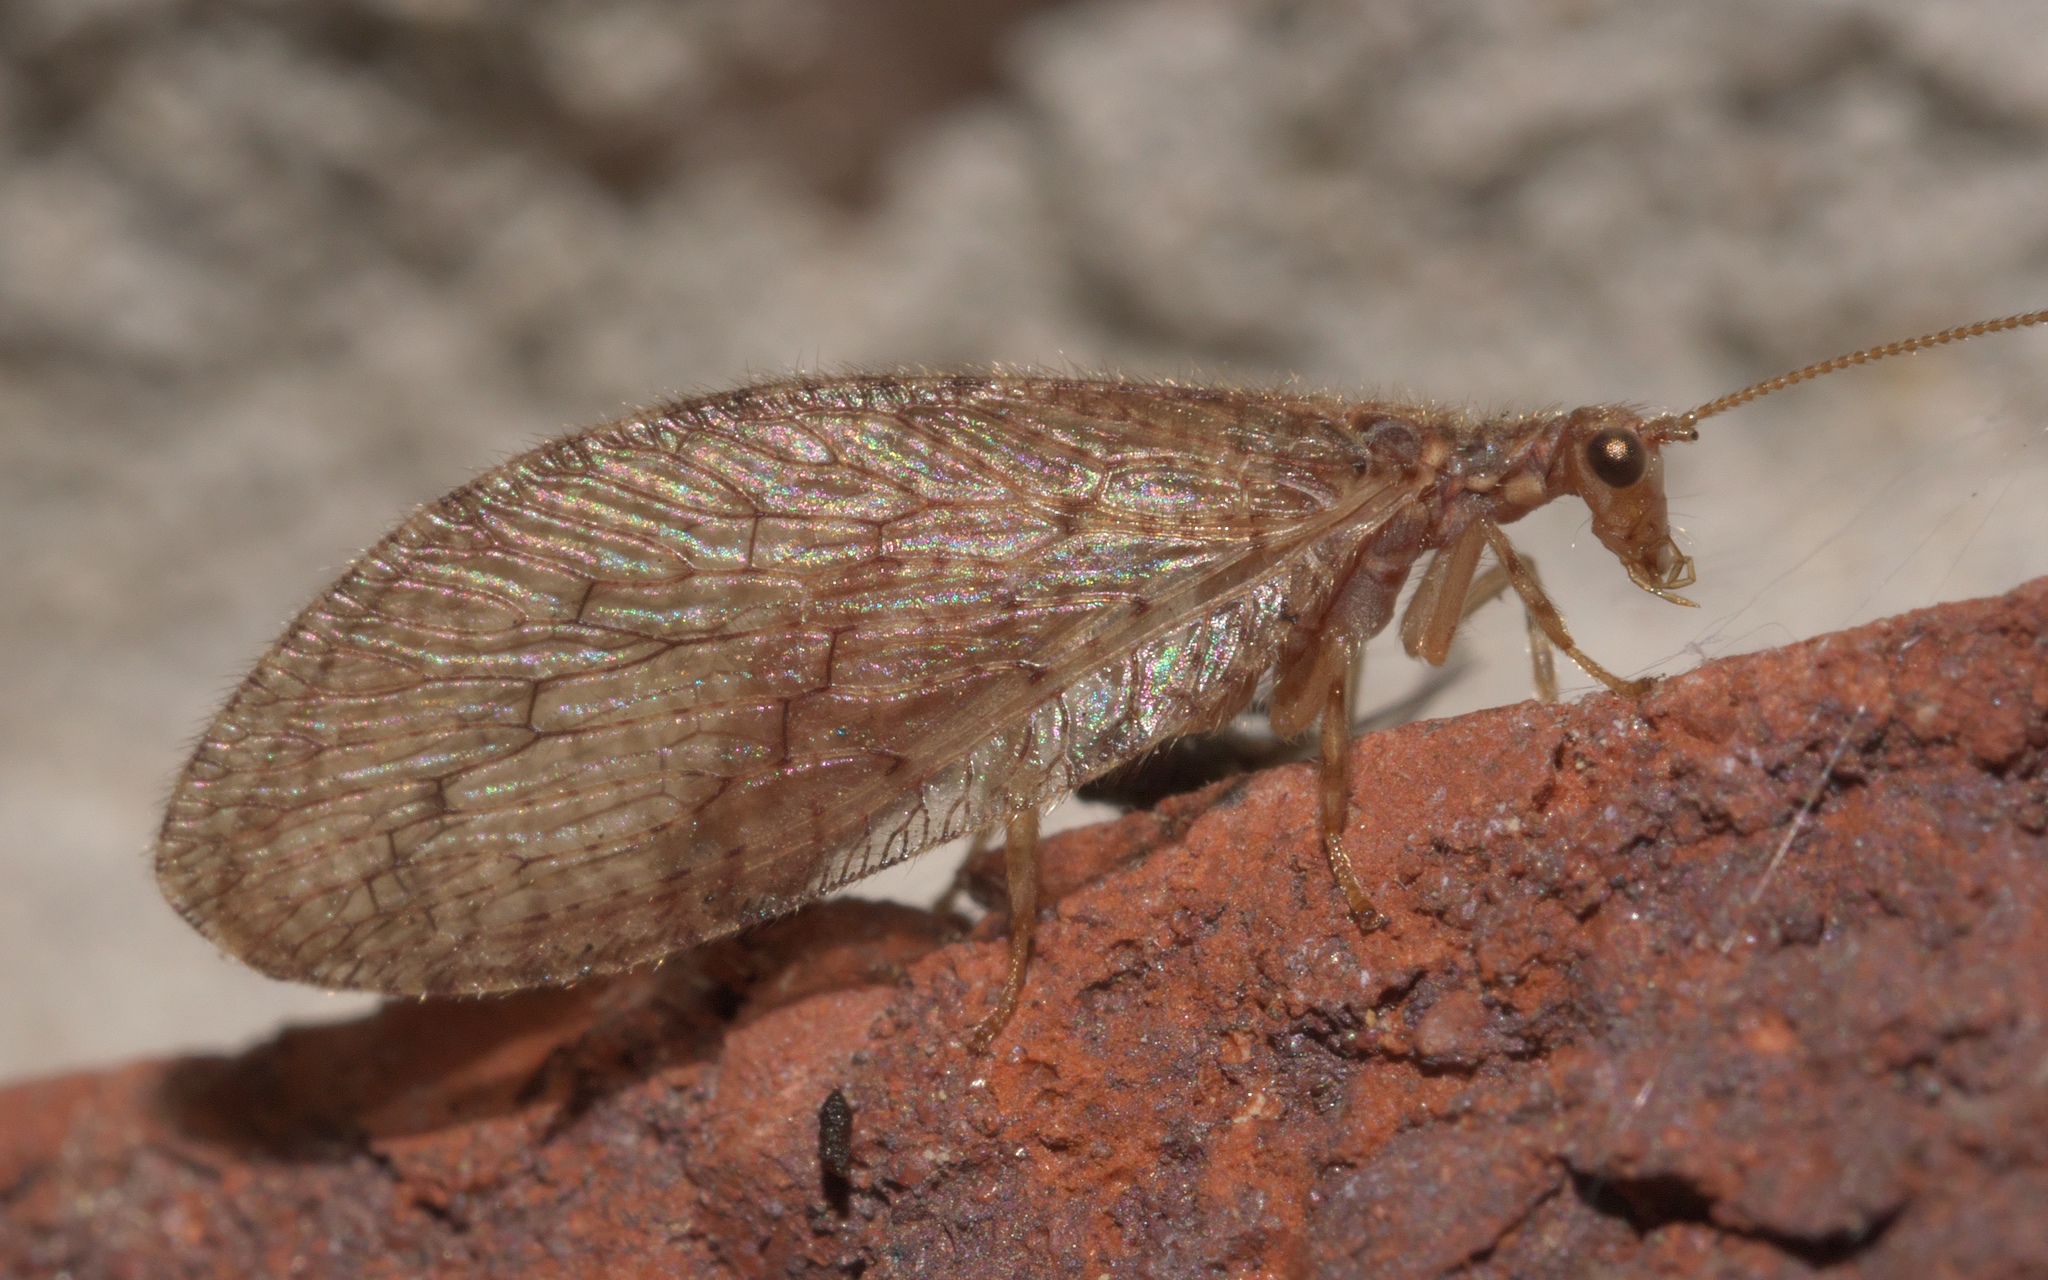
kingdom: Animalia
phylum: Arthropoda
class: Insecta
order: Neuroptera
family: Hemerobiidae
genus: Micromus
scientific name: Micromus posticus
